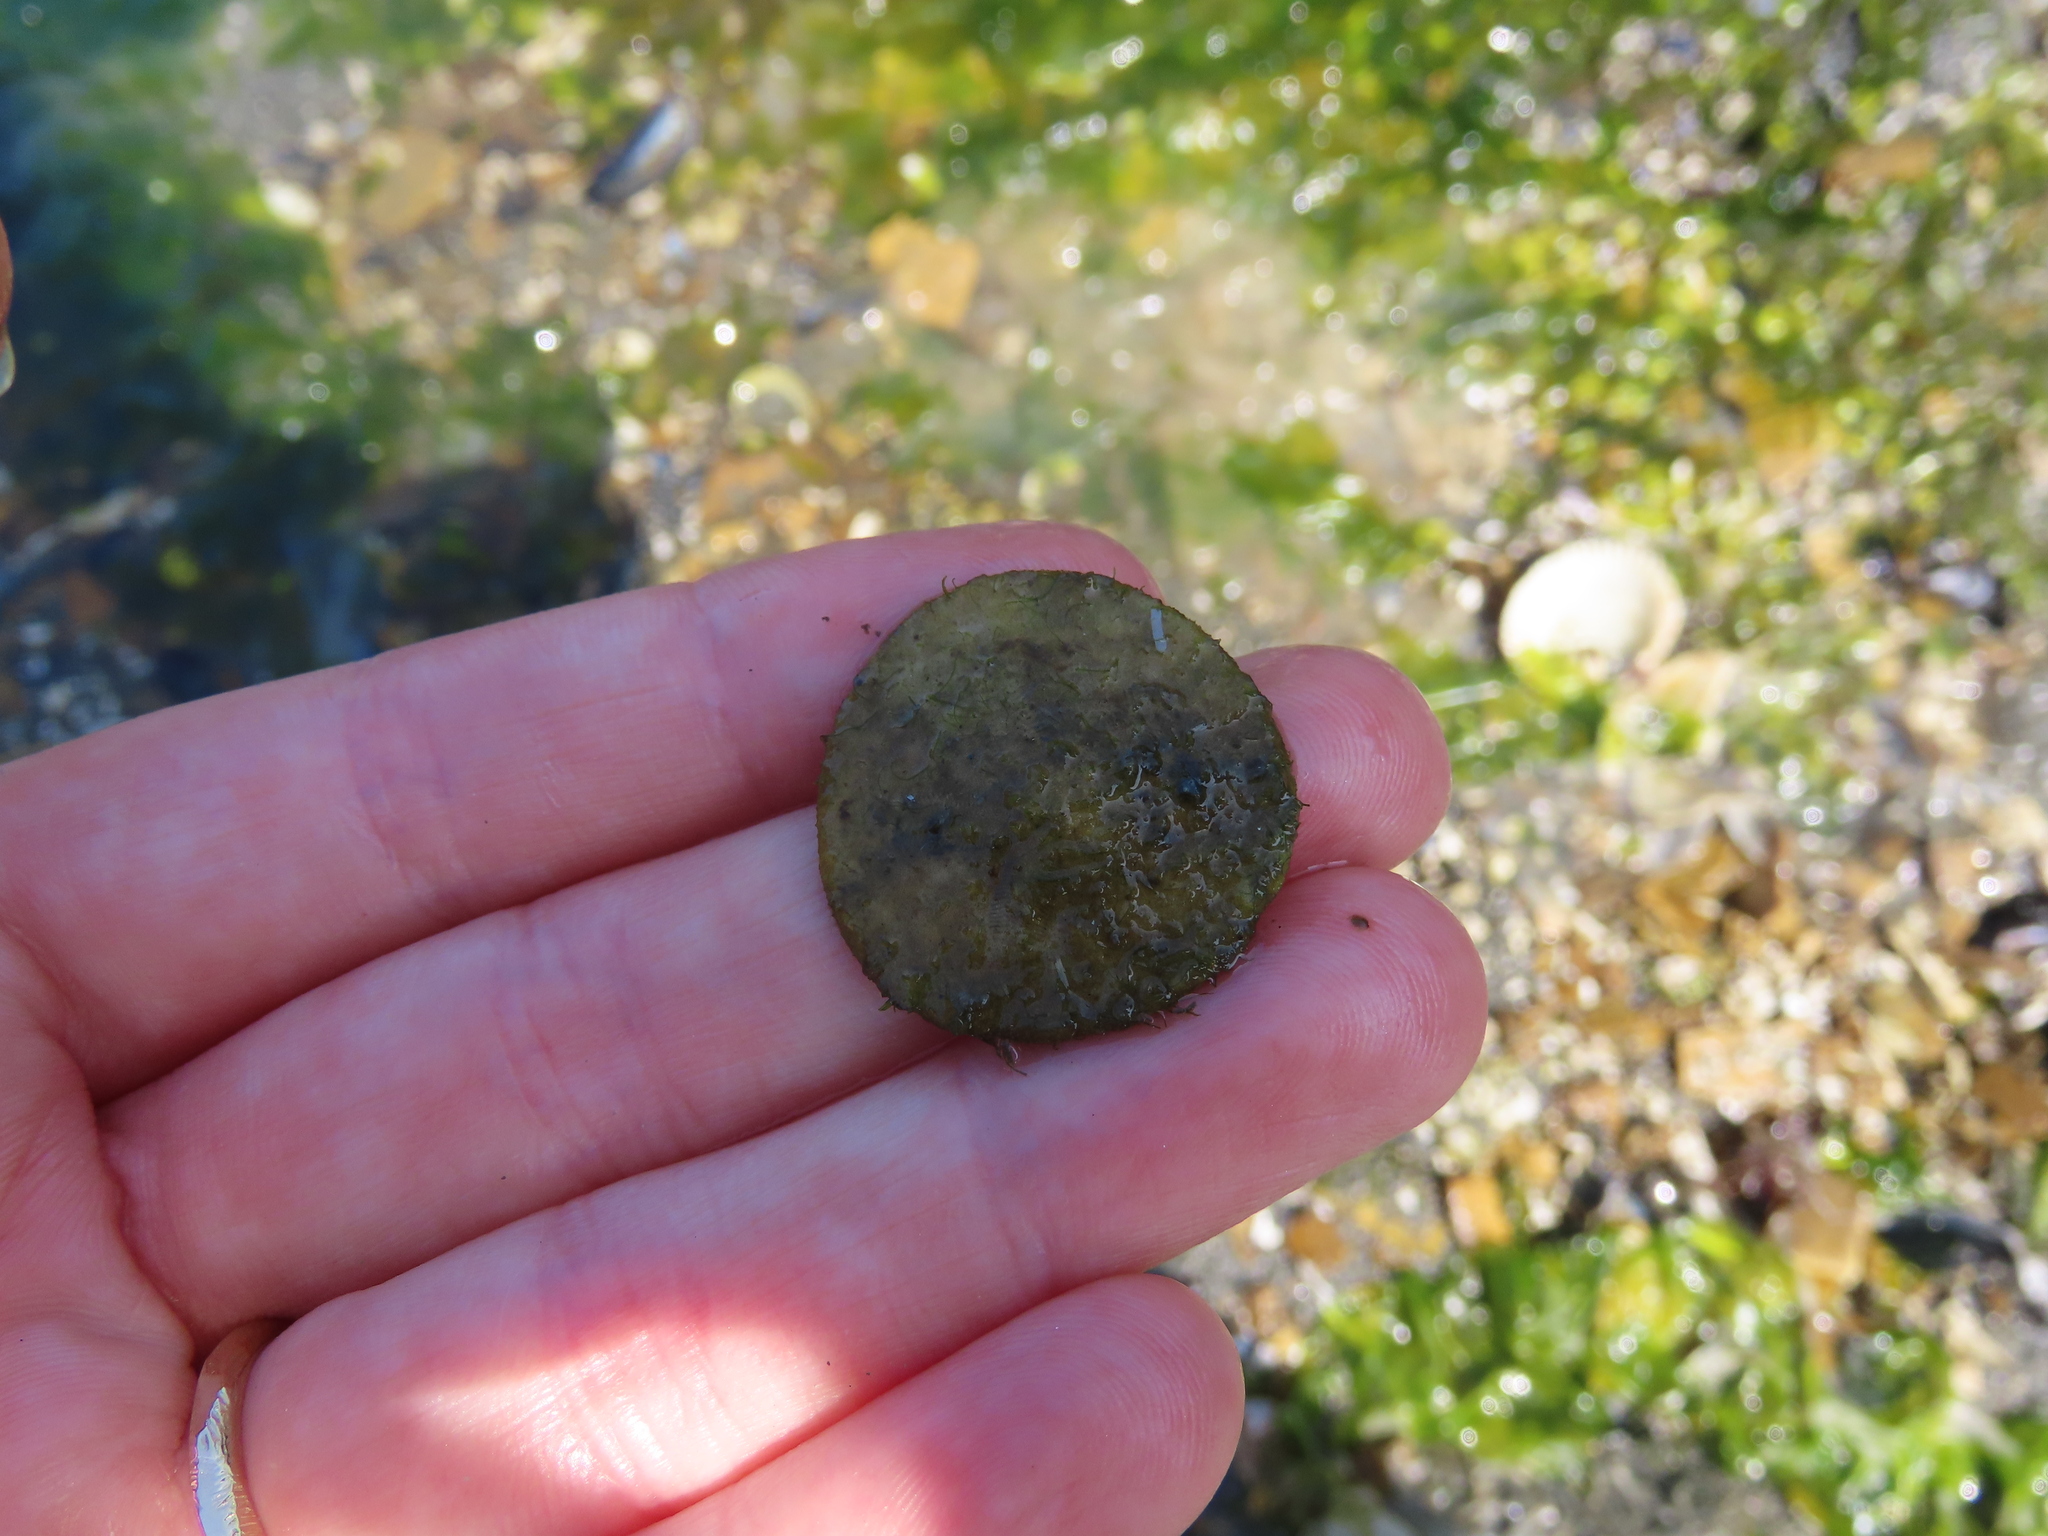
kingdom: Animalia
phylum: Echinodermata
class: Echinoidea
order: Echinolampadacea
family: Dendrasteridae
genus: Dendraster
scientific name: Dendraster excentricus
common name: Eccentric sand dollar sea urchin
